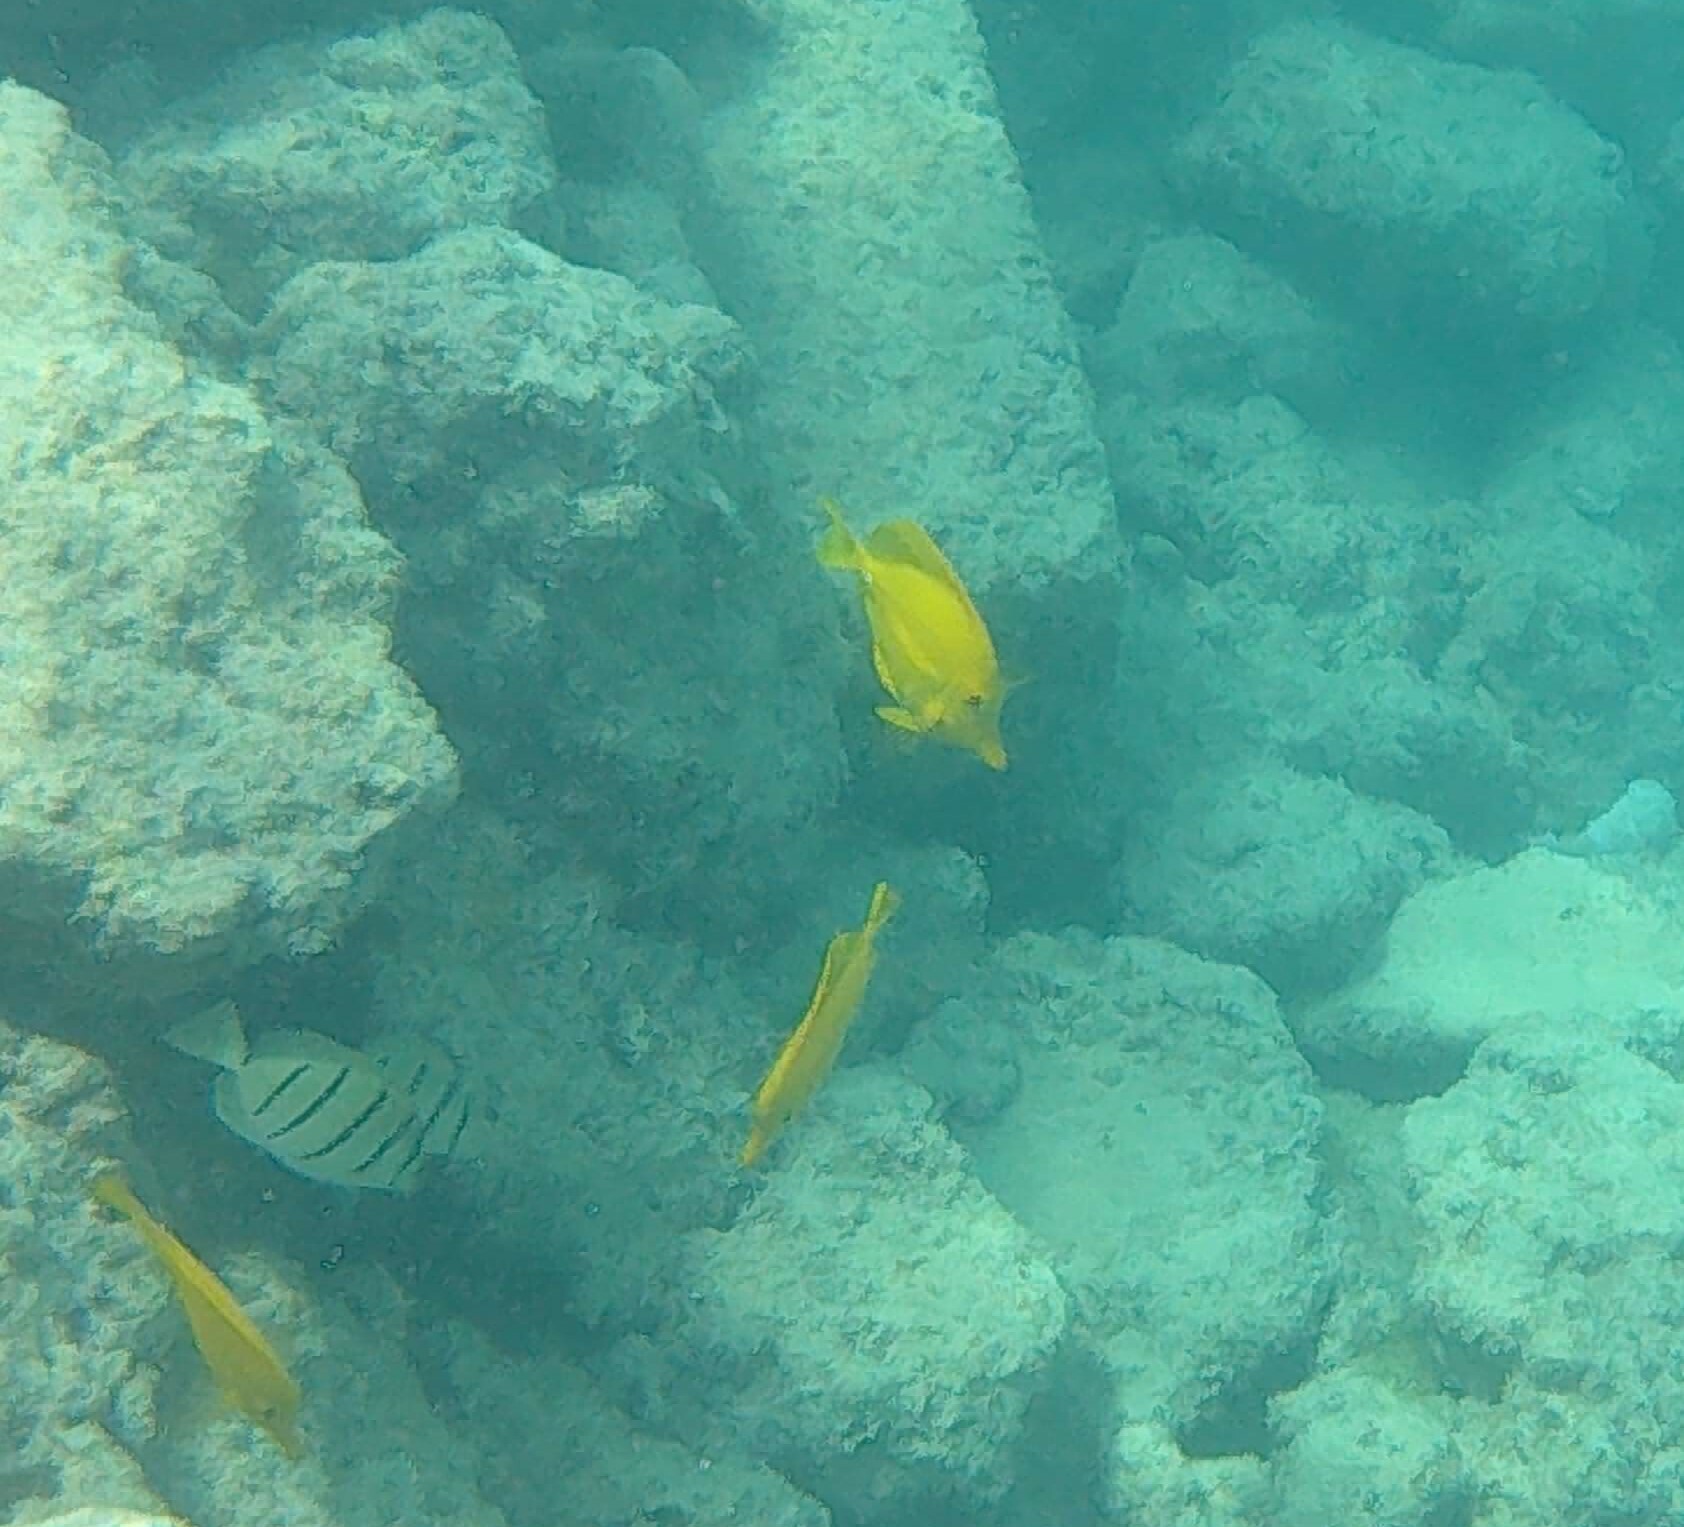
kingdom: Animalia
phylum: Chordata
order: Perciformes
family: Acanthuridae
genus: Zebrasoma
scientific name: Zebrasoma flavescens
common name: Yellow tang
